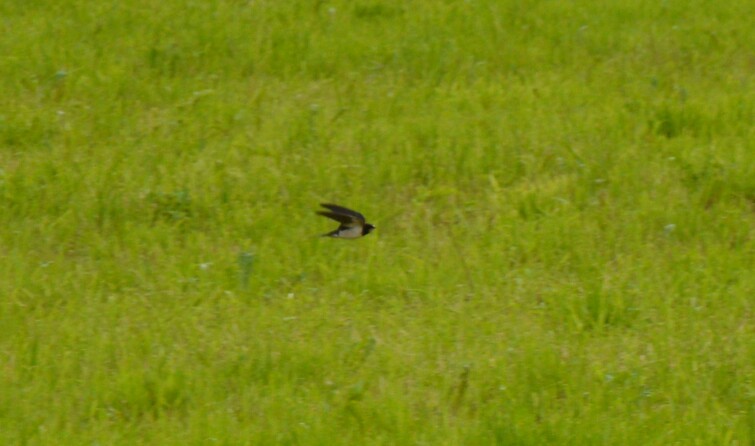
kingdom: Animalia
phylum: Chordata
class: Aves
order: Passeriformes
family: Hirundinidae
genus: Hirundo
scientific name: Hirundo rustica
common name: Barn swallow
